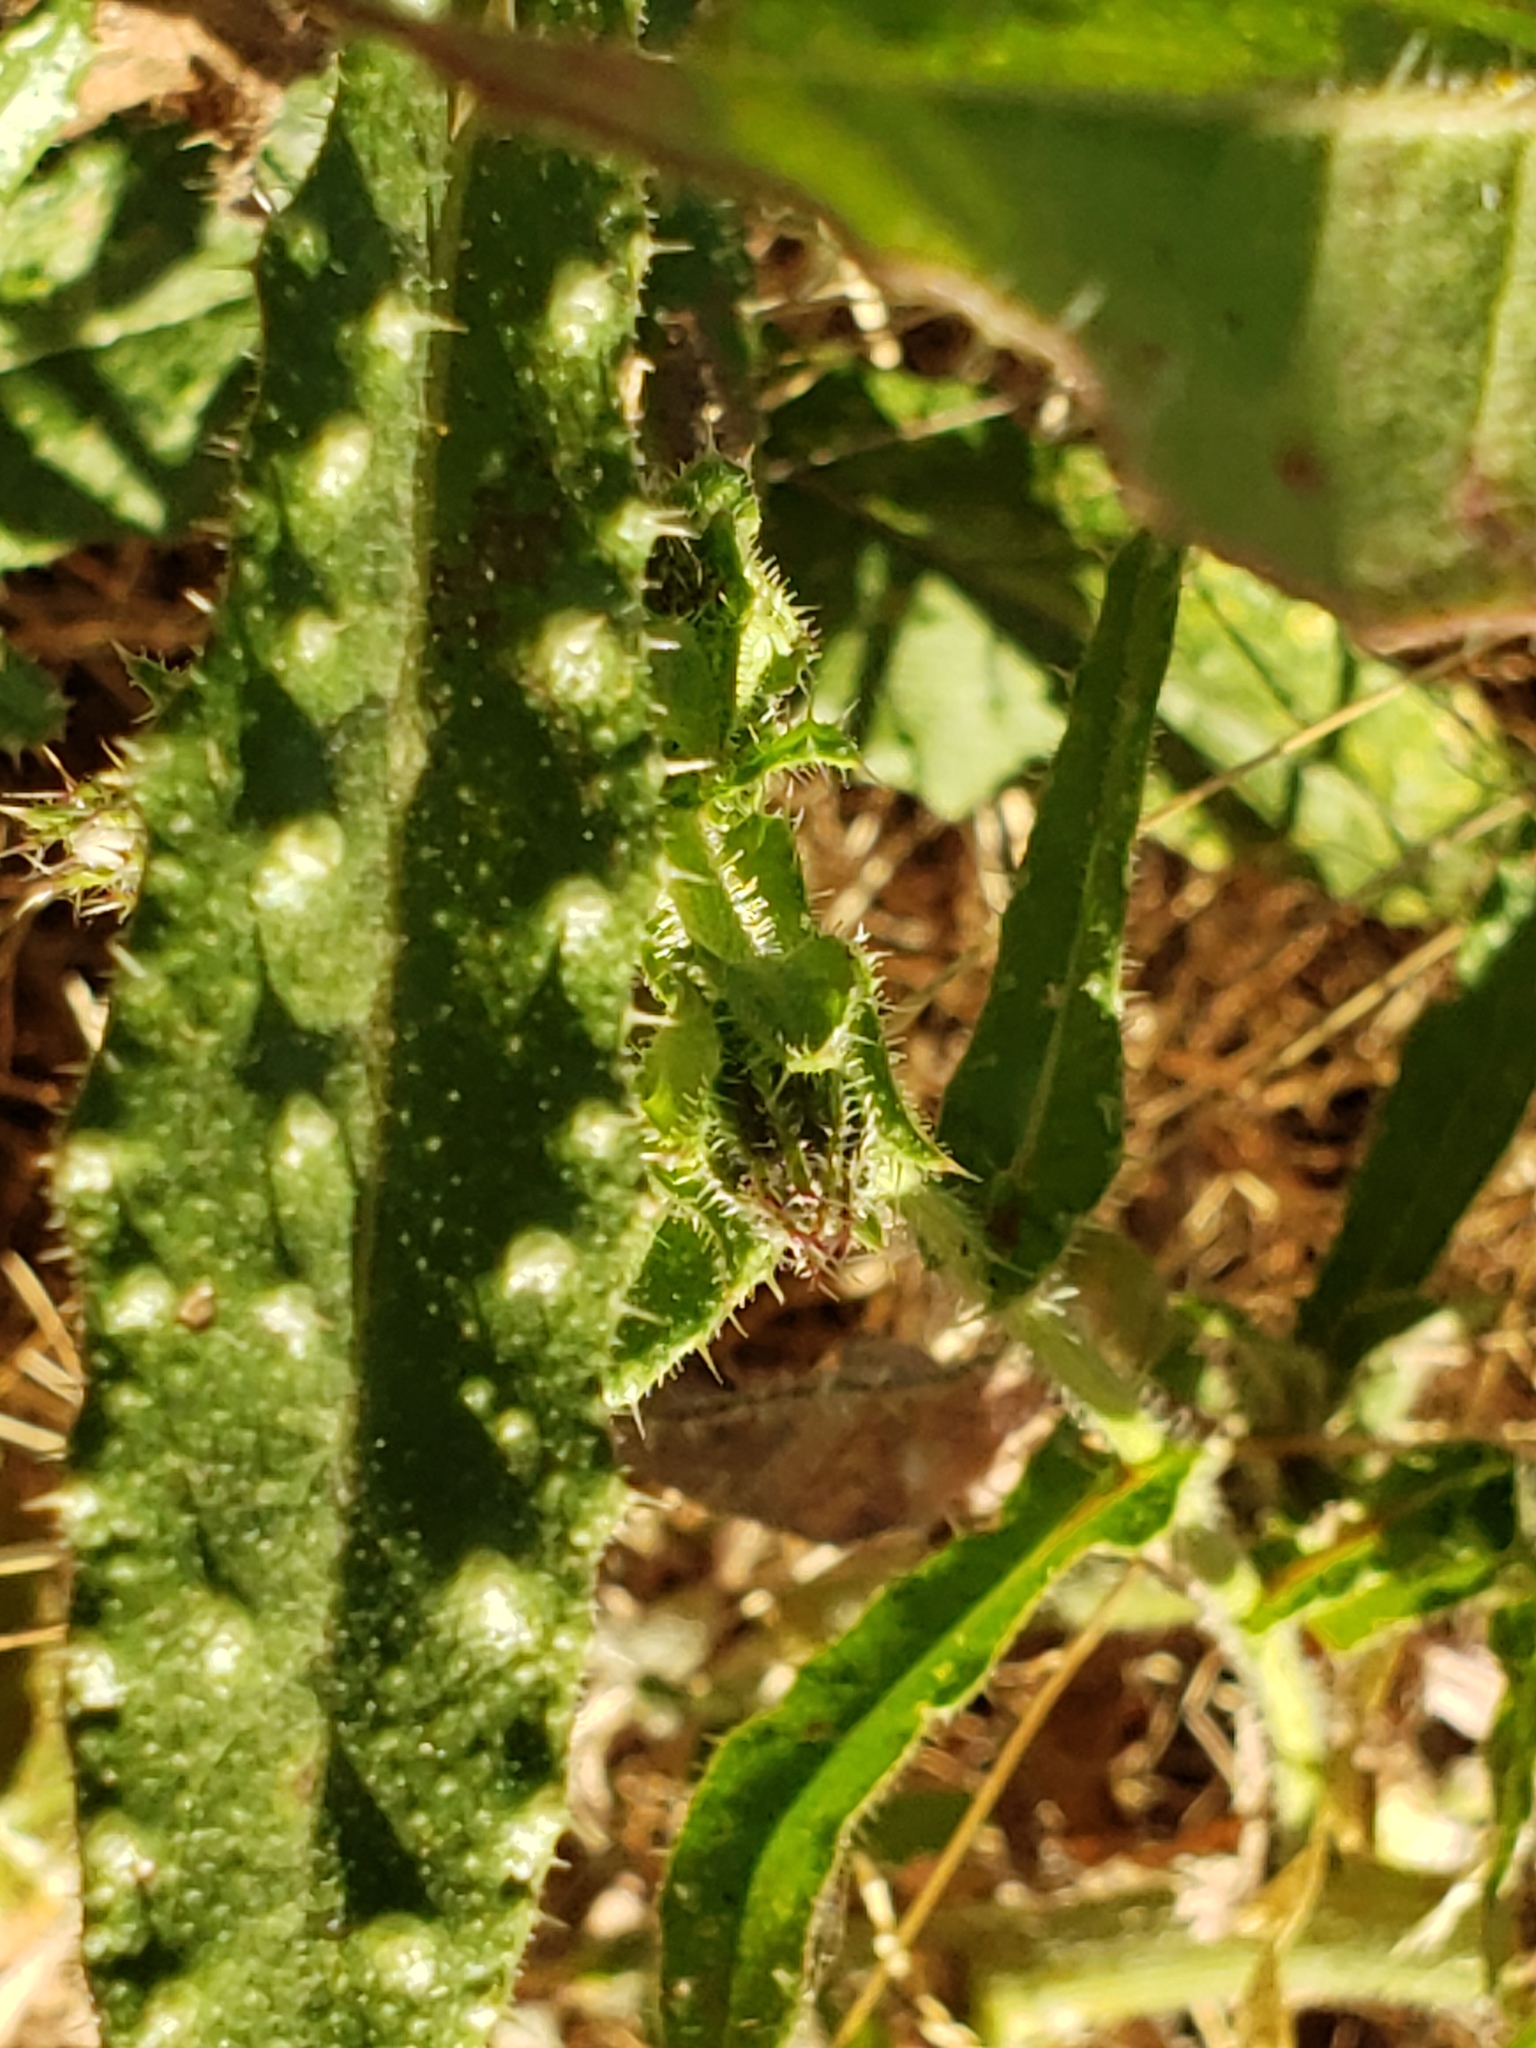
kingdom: Plantae
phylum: Tracheophyta
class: Magnoliopsida
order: Asterales
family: Asteraceae
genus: Helminthotheca
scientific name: Helminthotheca echioides
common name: Ox-tongue
